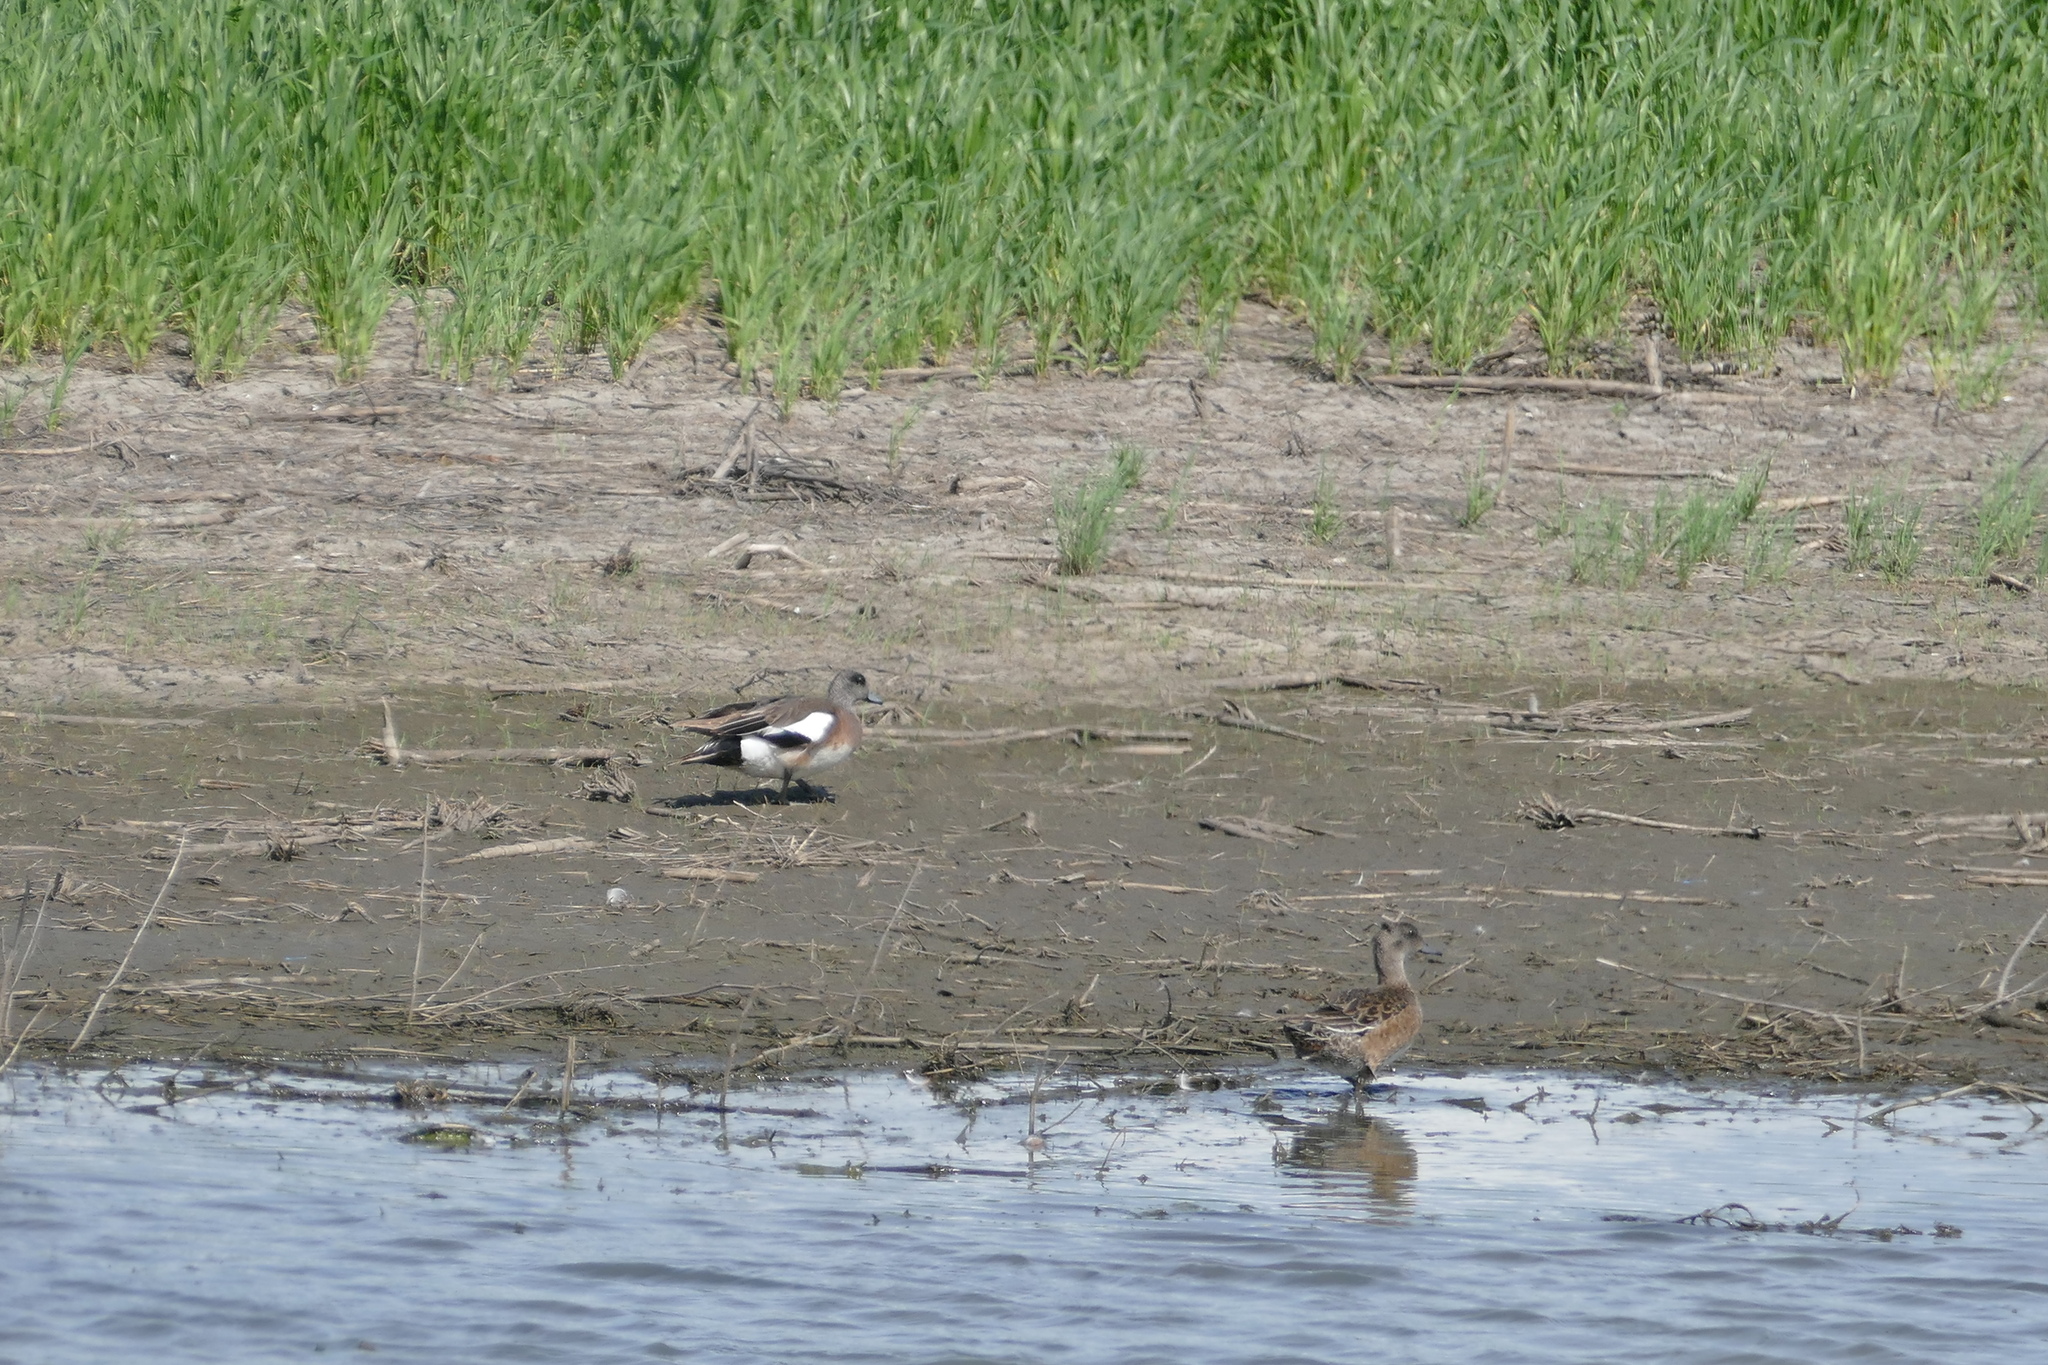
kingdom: Animalia
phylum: Chordata
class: Aves
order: Anseriformes
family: Anatidae
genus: Mareca
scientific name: Mareca americana
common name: American wigeon
